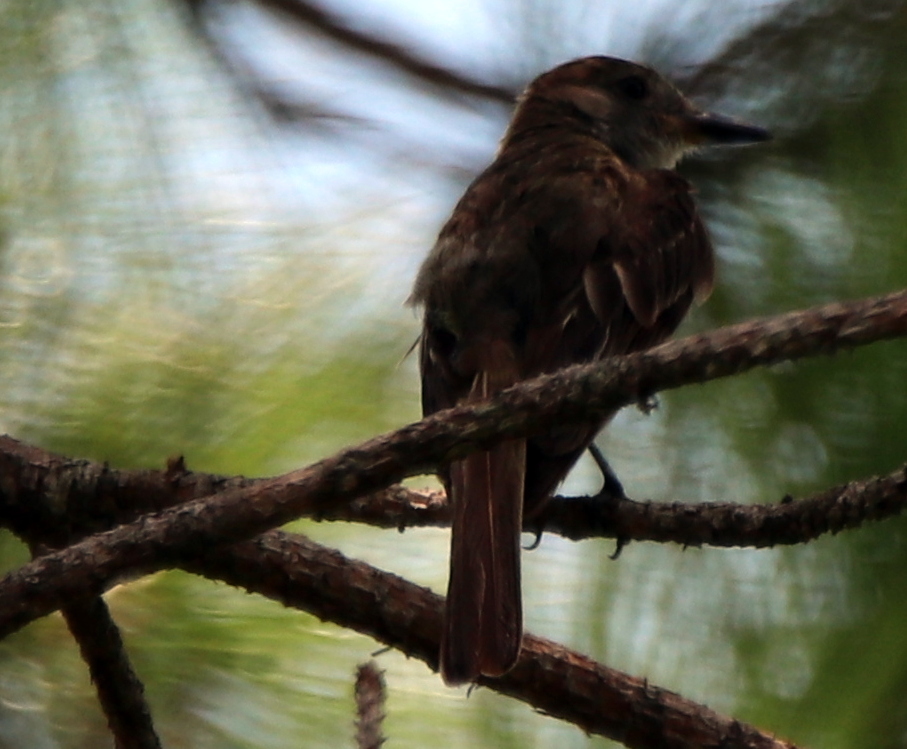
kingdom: Animalia
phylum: Chordata
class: Aves
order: Passeriformes
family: Tyrannidae
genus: Myiarchus
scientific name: Myiarchus crinitus
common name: Great crested flycatcher
